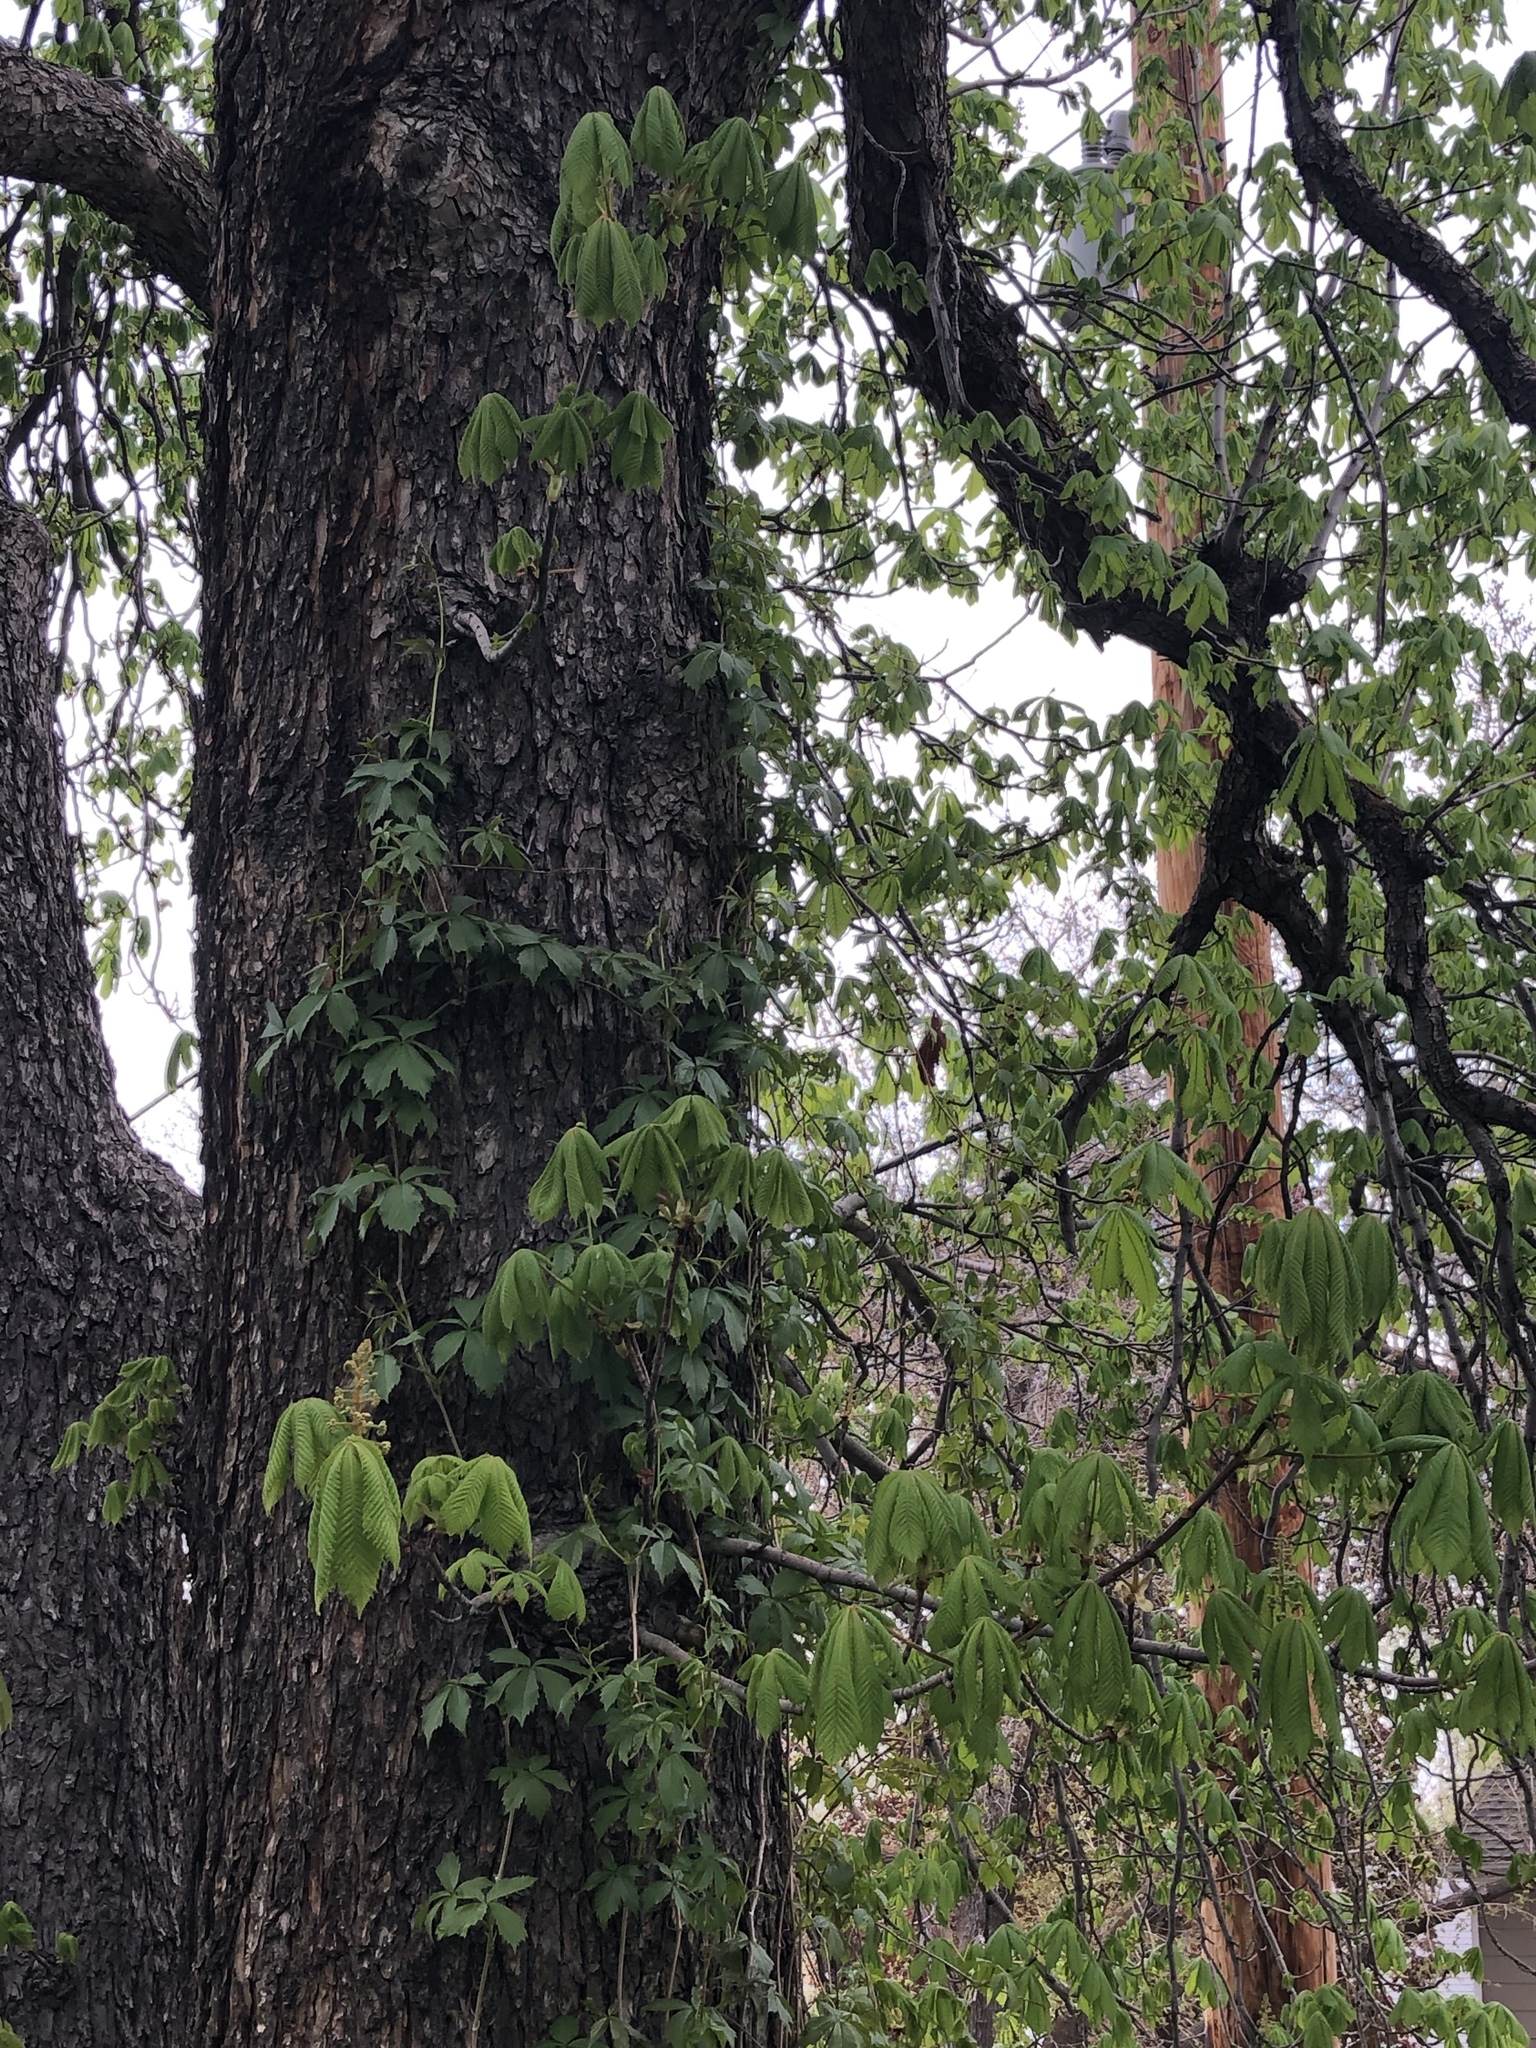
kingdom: Plantae
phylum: Tracheophyta
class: Magnoliopsida
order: Sapindales
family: Sapindaceae
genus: Aesculus
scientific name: Aesculus hippocastanum
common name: Horse-chestnut
